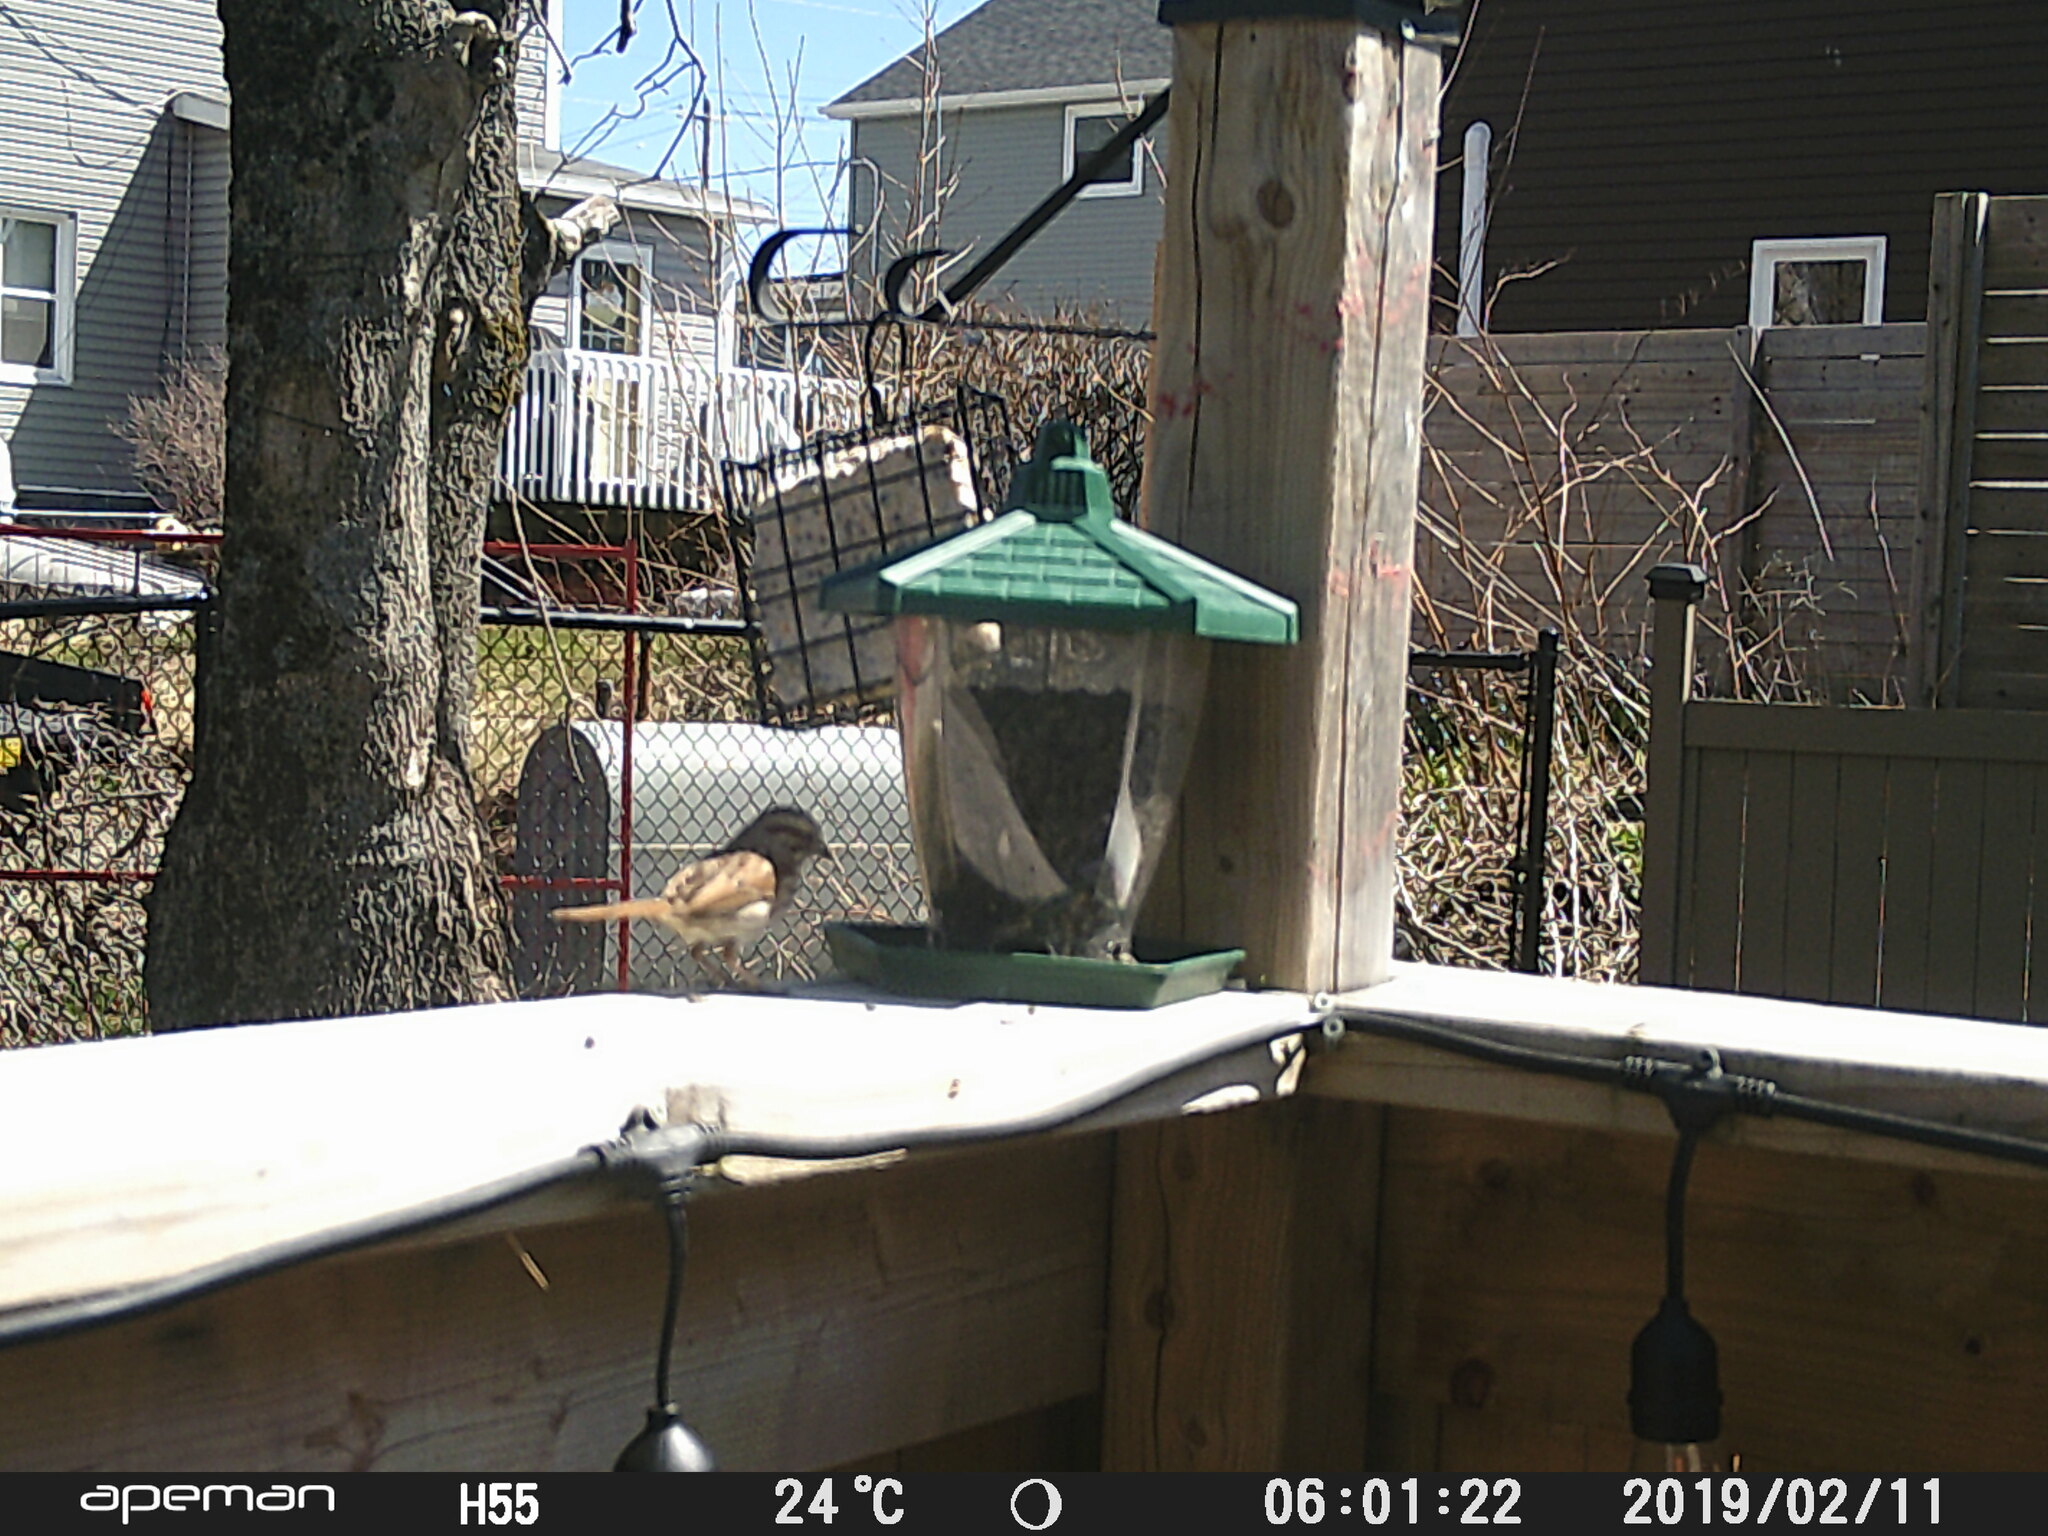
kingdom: Animalia
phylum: Chordata
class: Aves
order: Passeriformes
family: Passerellidae
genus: Melospiza
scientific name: Melospiza melodia
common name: Song sparrow
